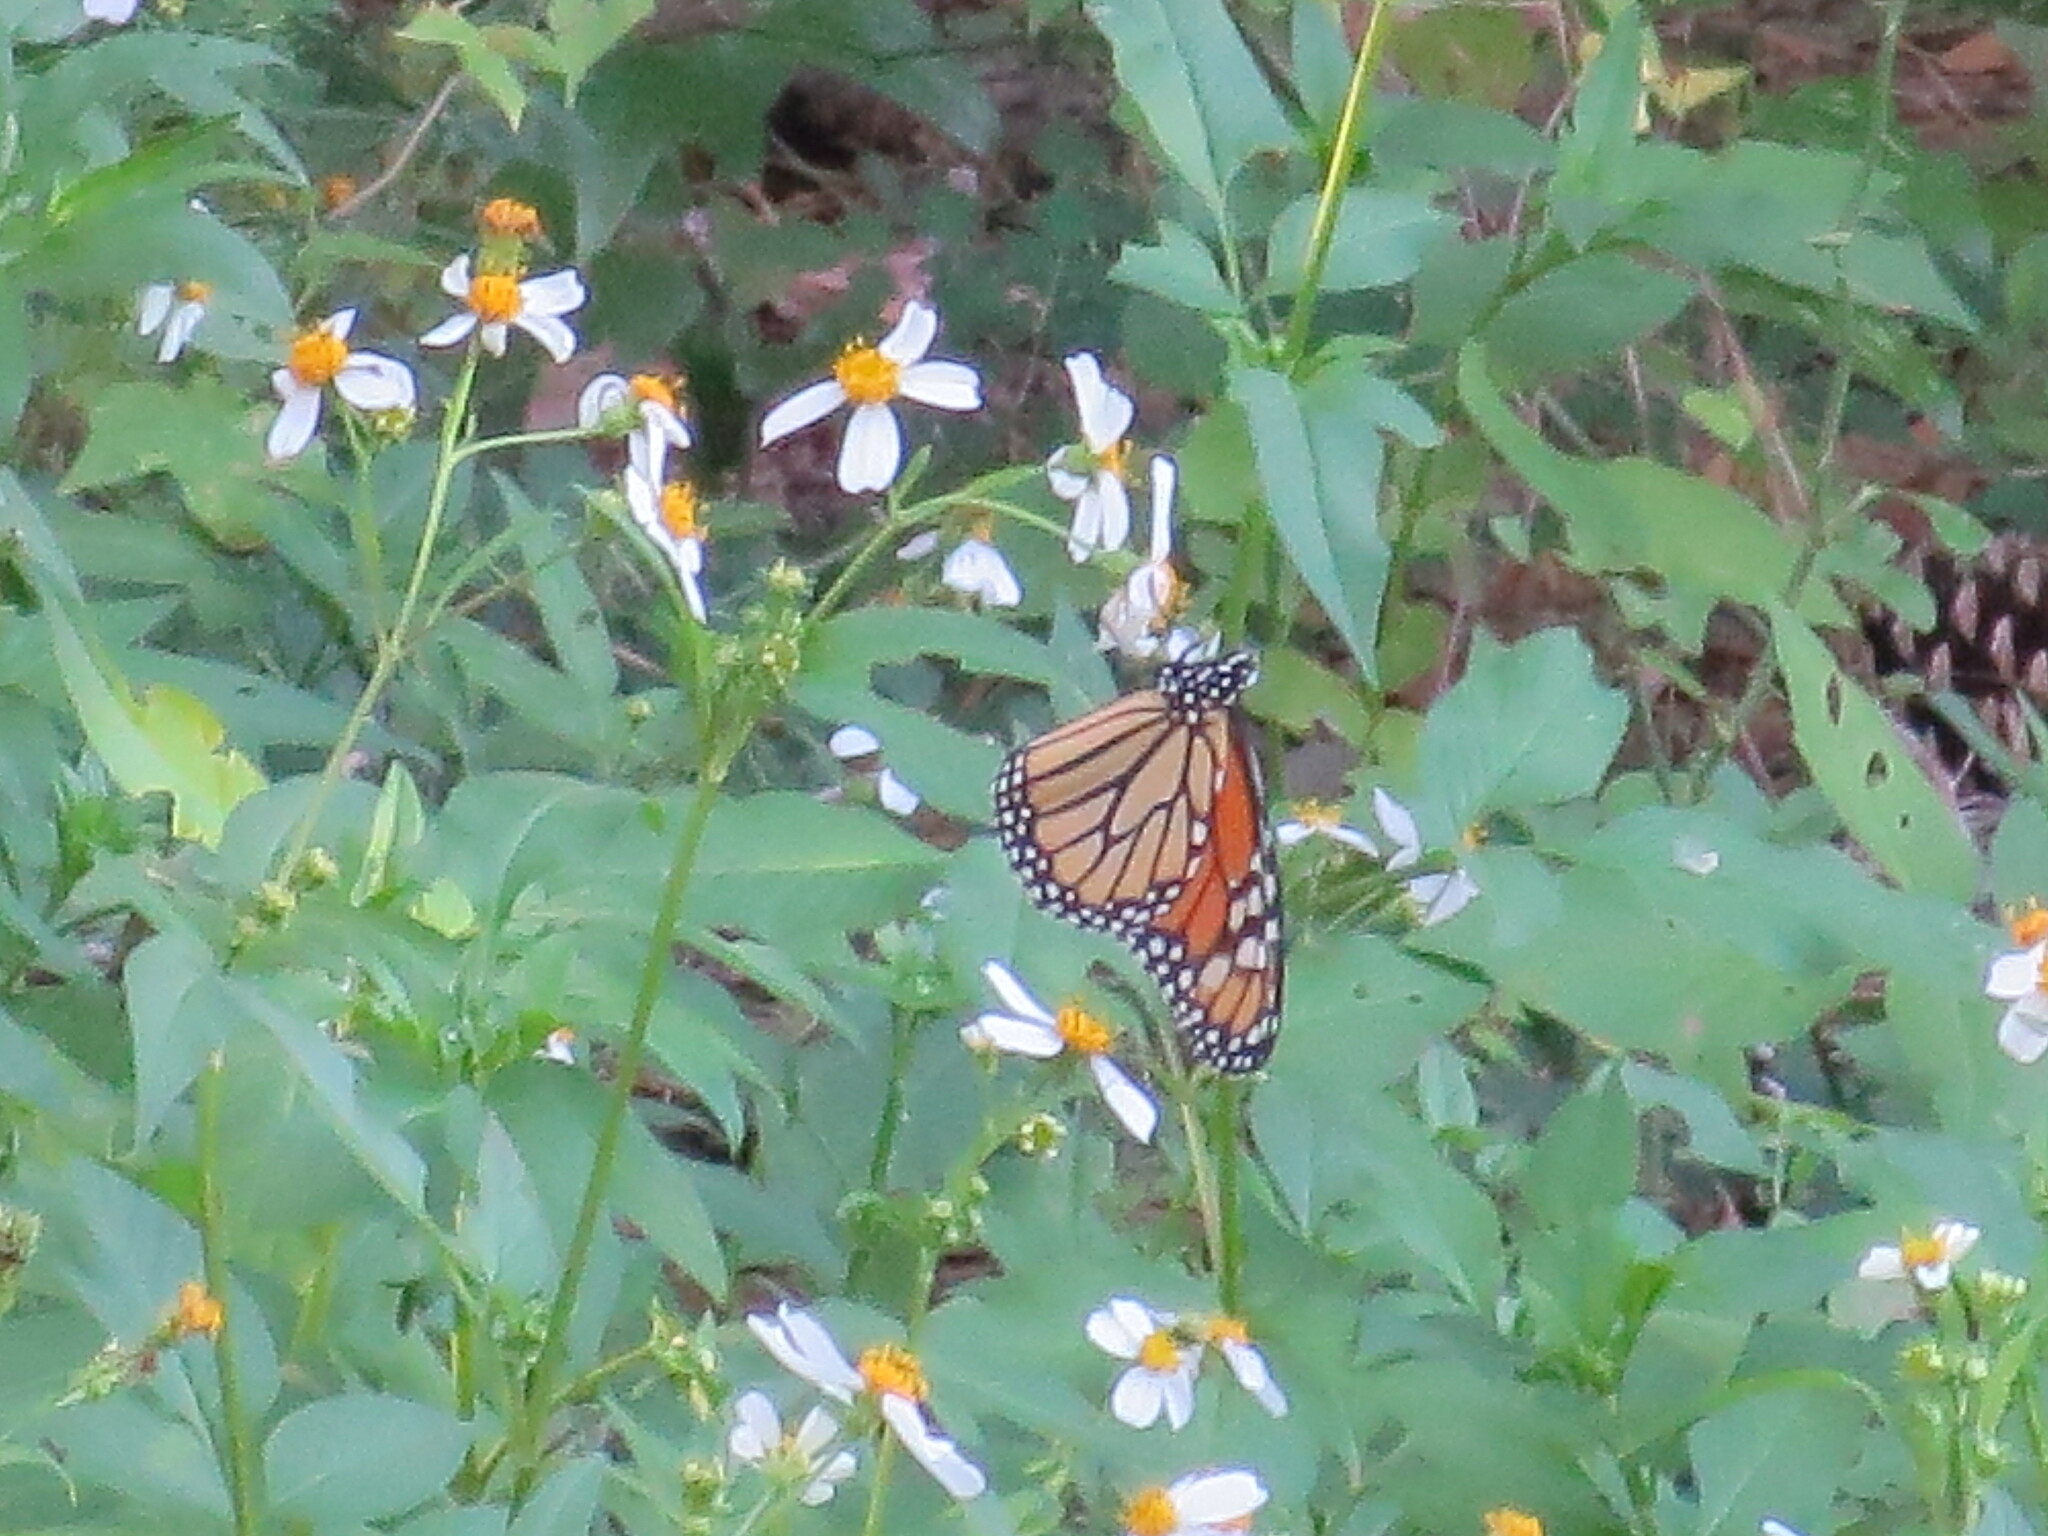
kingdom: Animalia
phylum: Arthropoda
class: Insecta
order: Lepidoptera
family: Nymphalidae
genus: Danaus
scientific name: Danaus plexippus
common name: Monarch
